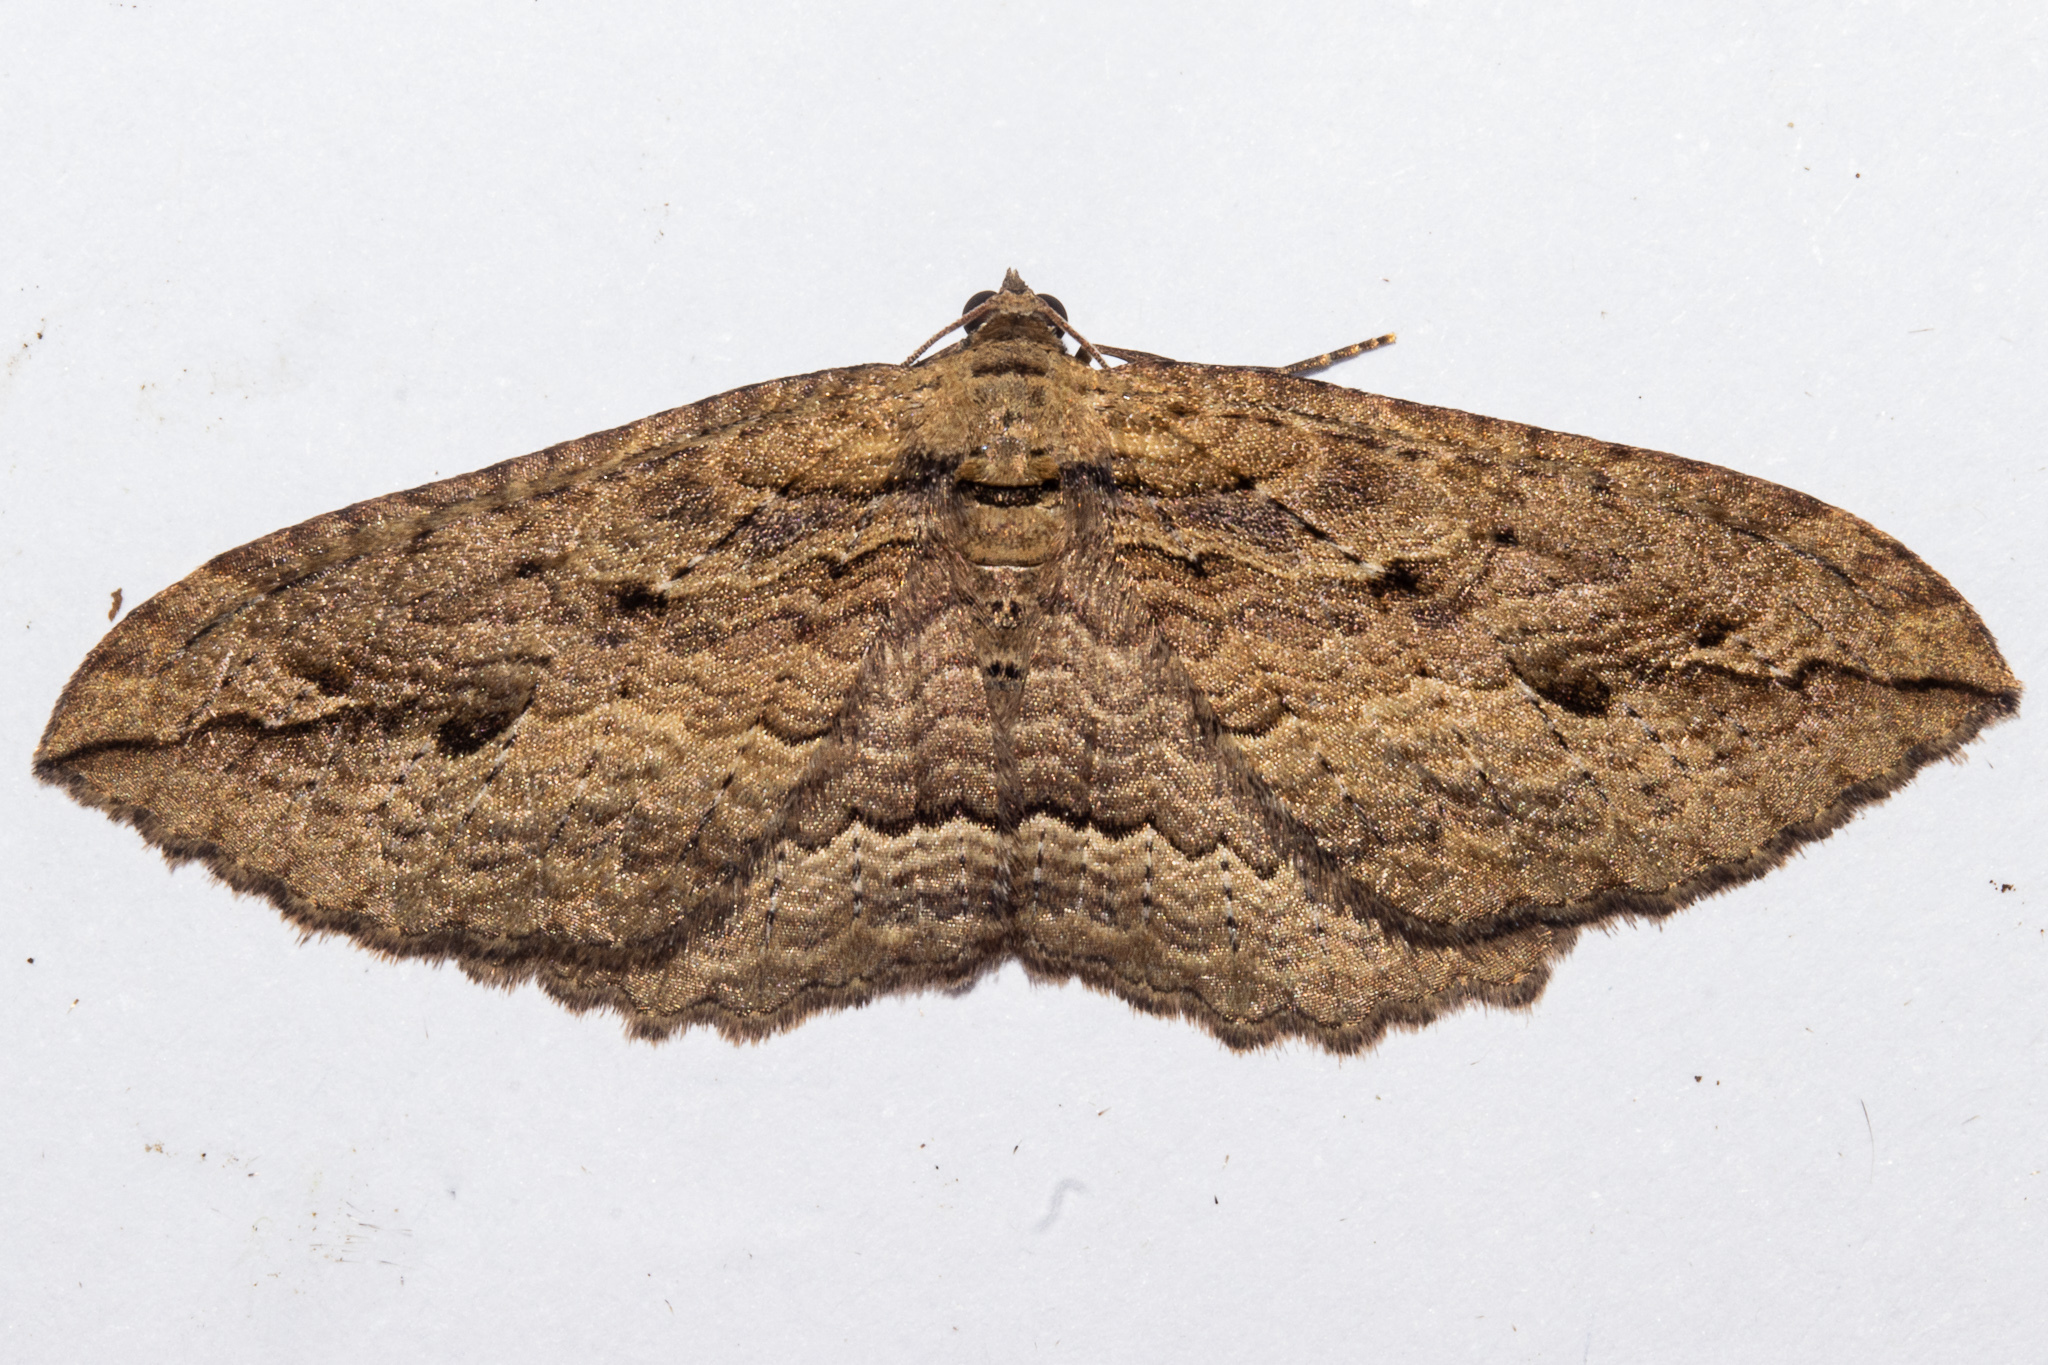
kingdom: Animalia
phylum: Arthropoda
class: Insecta
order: Lepidoptera
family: Geometridae
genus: Austrocidaria
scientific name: Austrocidaria gobiata
